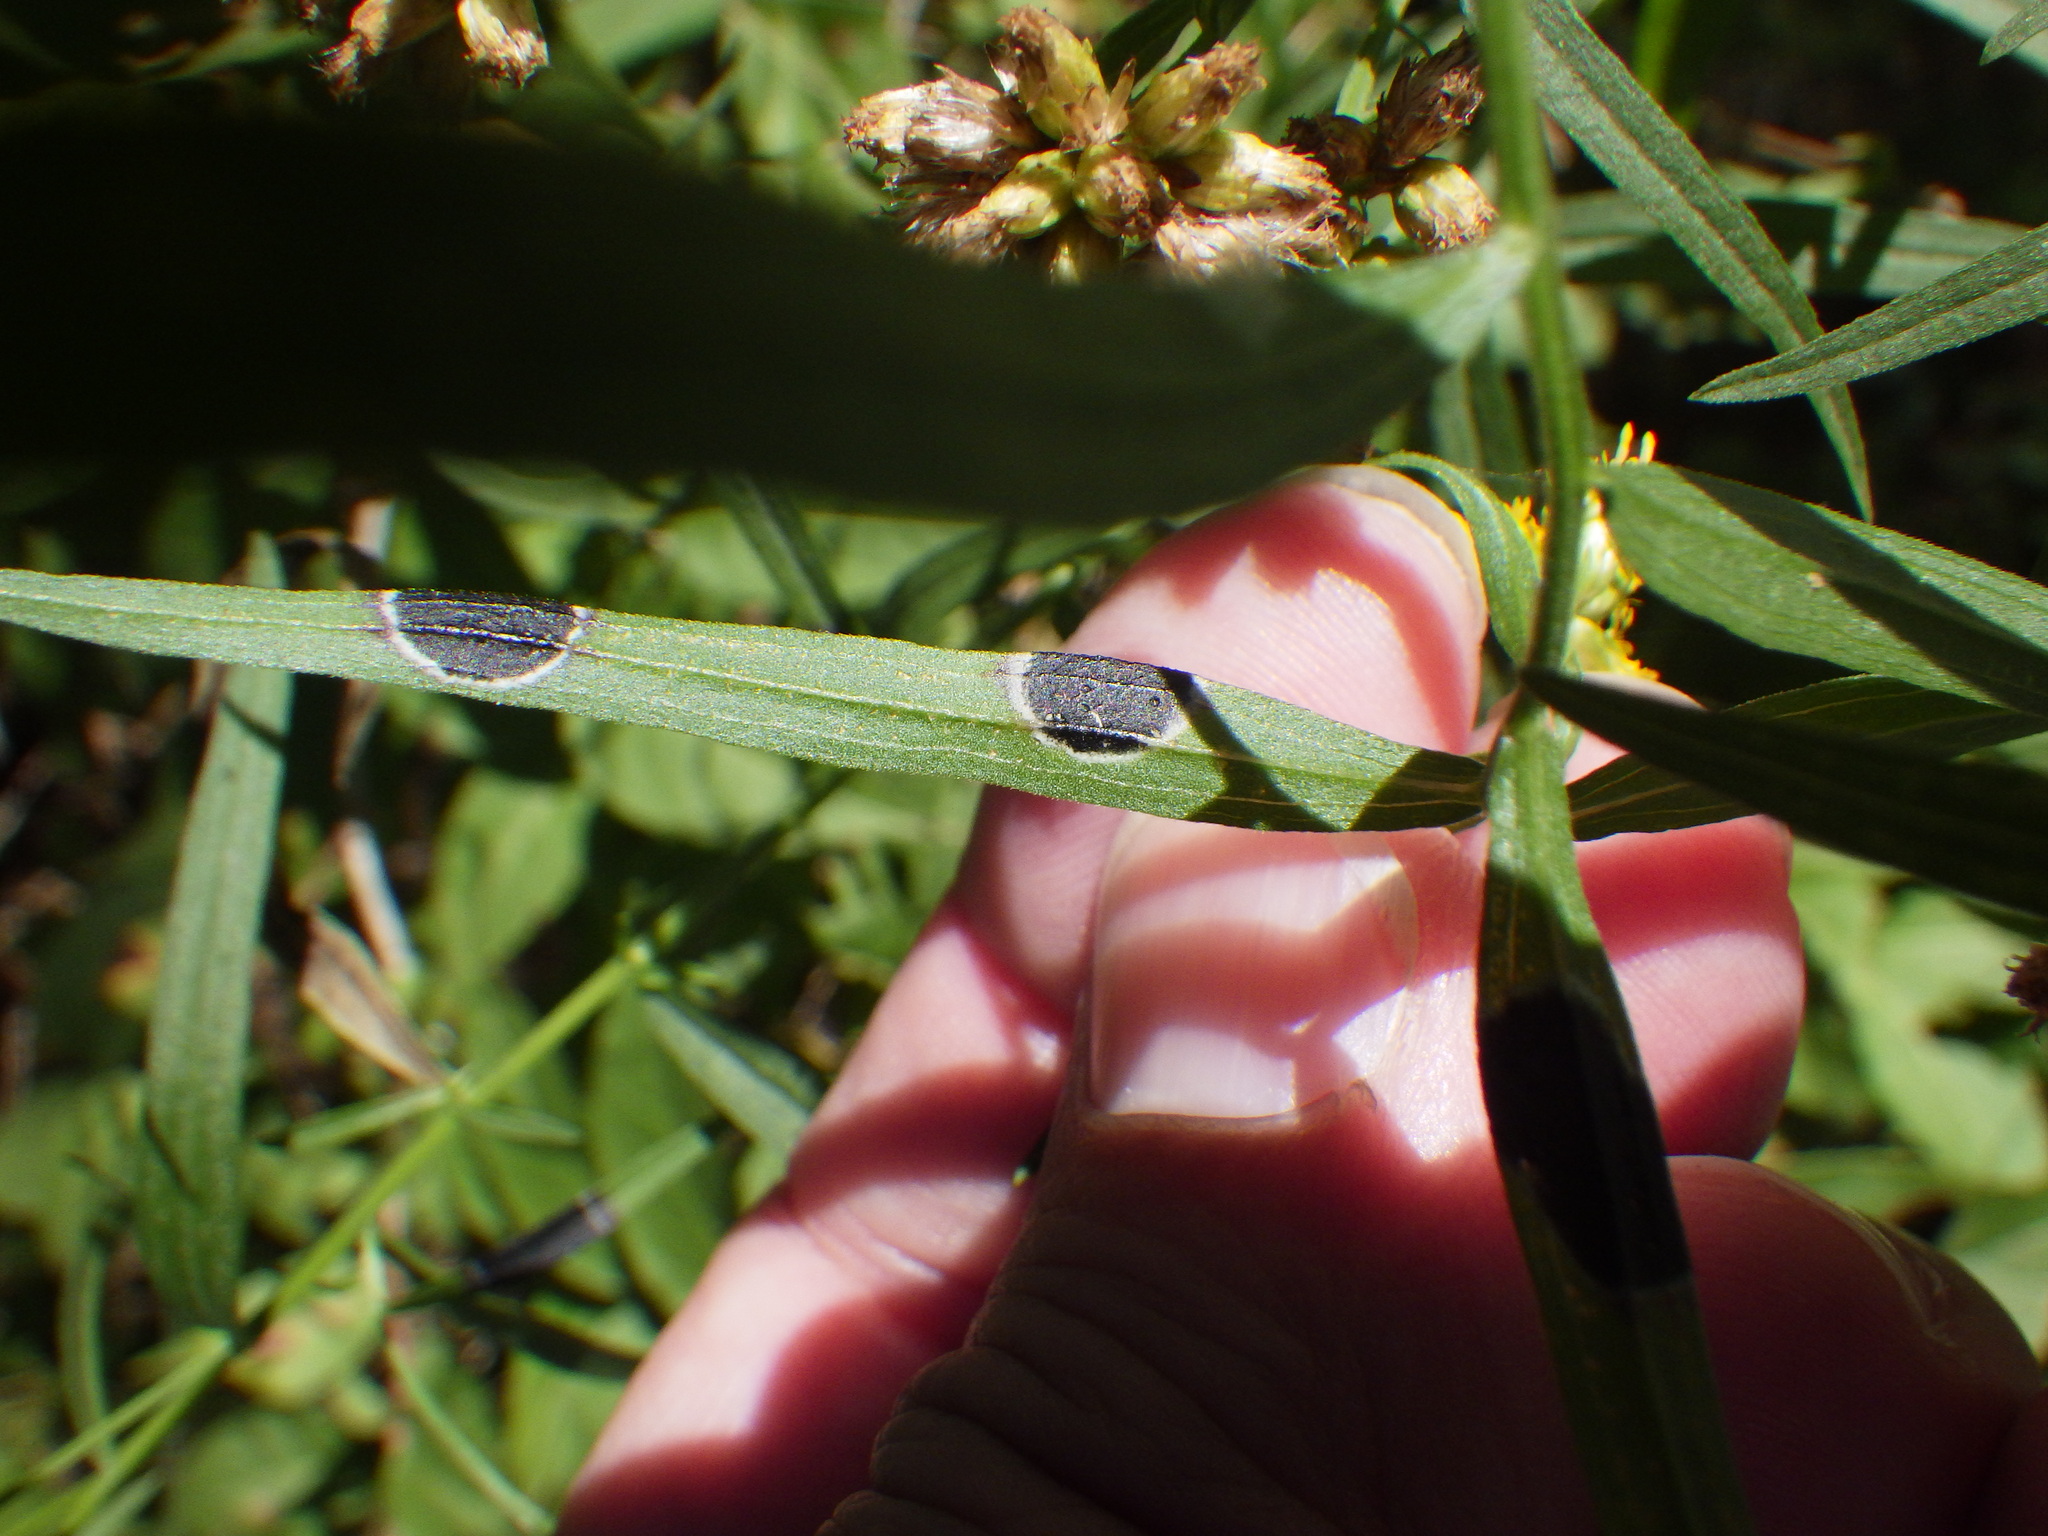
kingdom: Animalia
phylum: Arthropoda
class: Insecta
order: Diptera
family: Cecidomyiidae
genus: Asteromyia
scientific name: Asteromyia euthamiae
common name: Euthamia leaf gall midge
